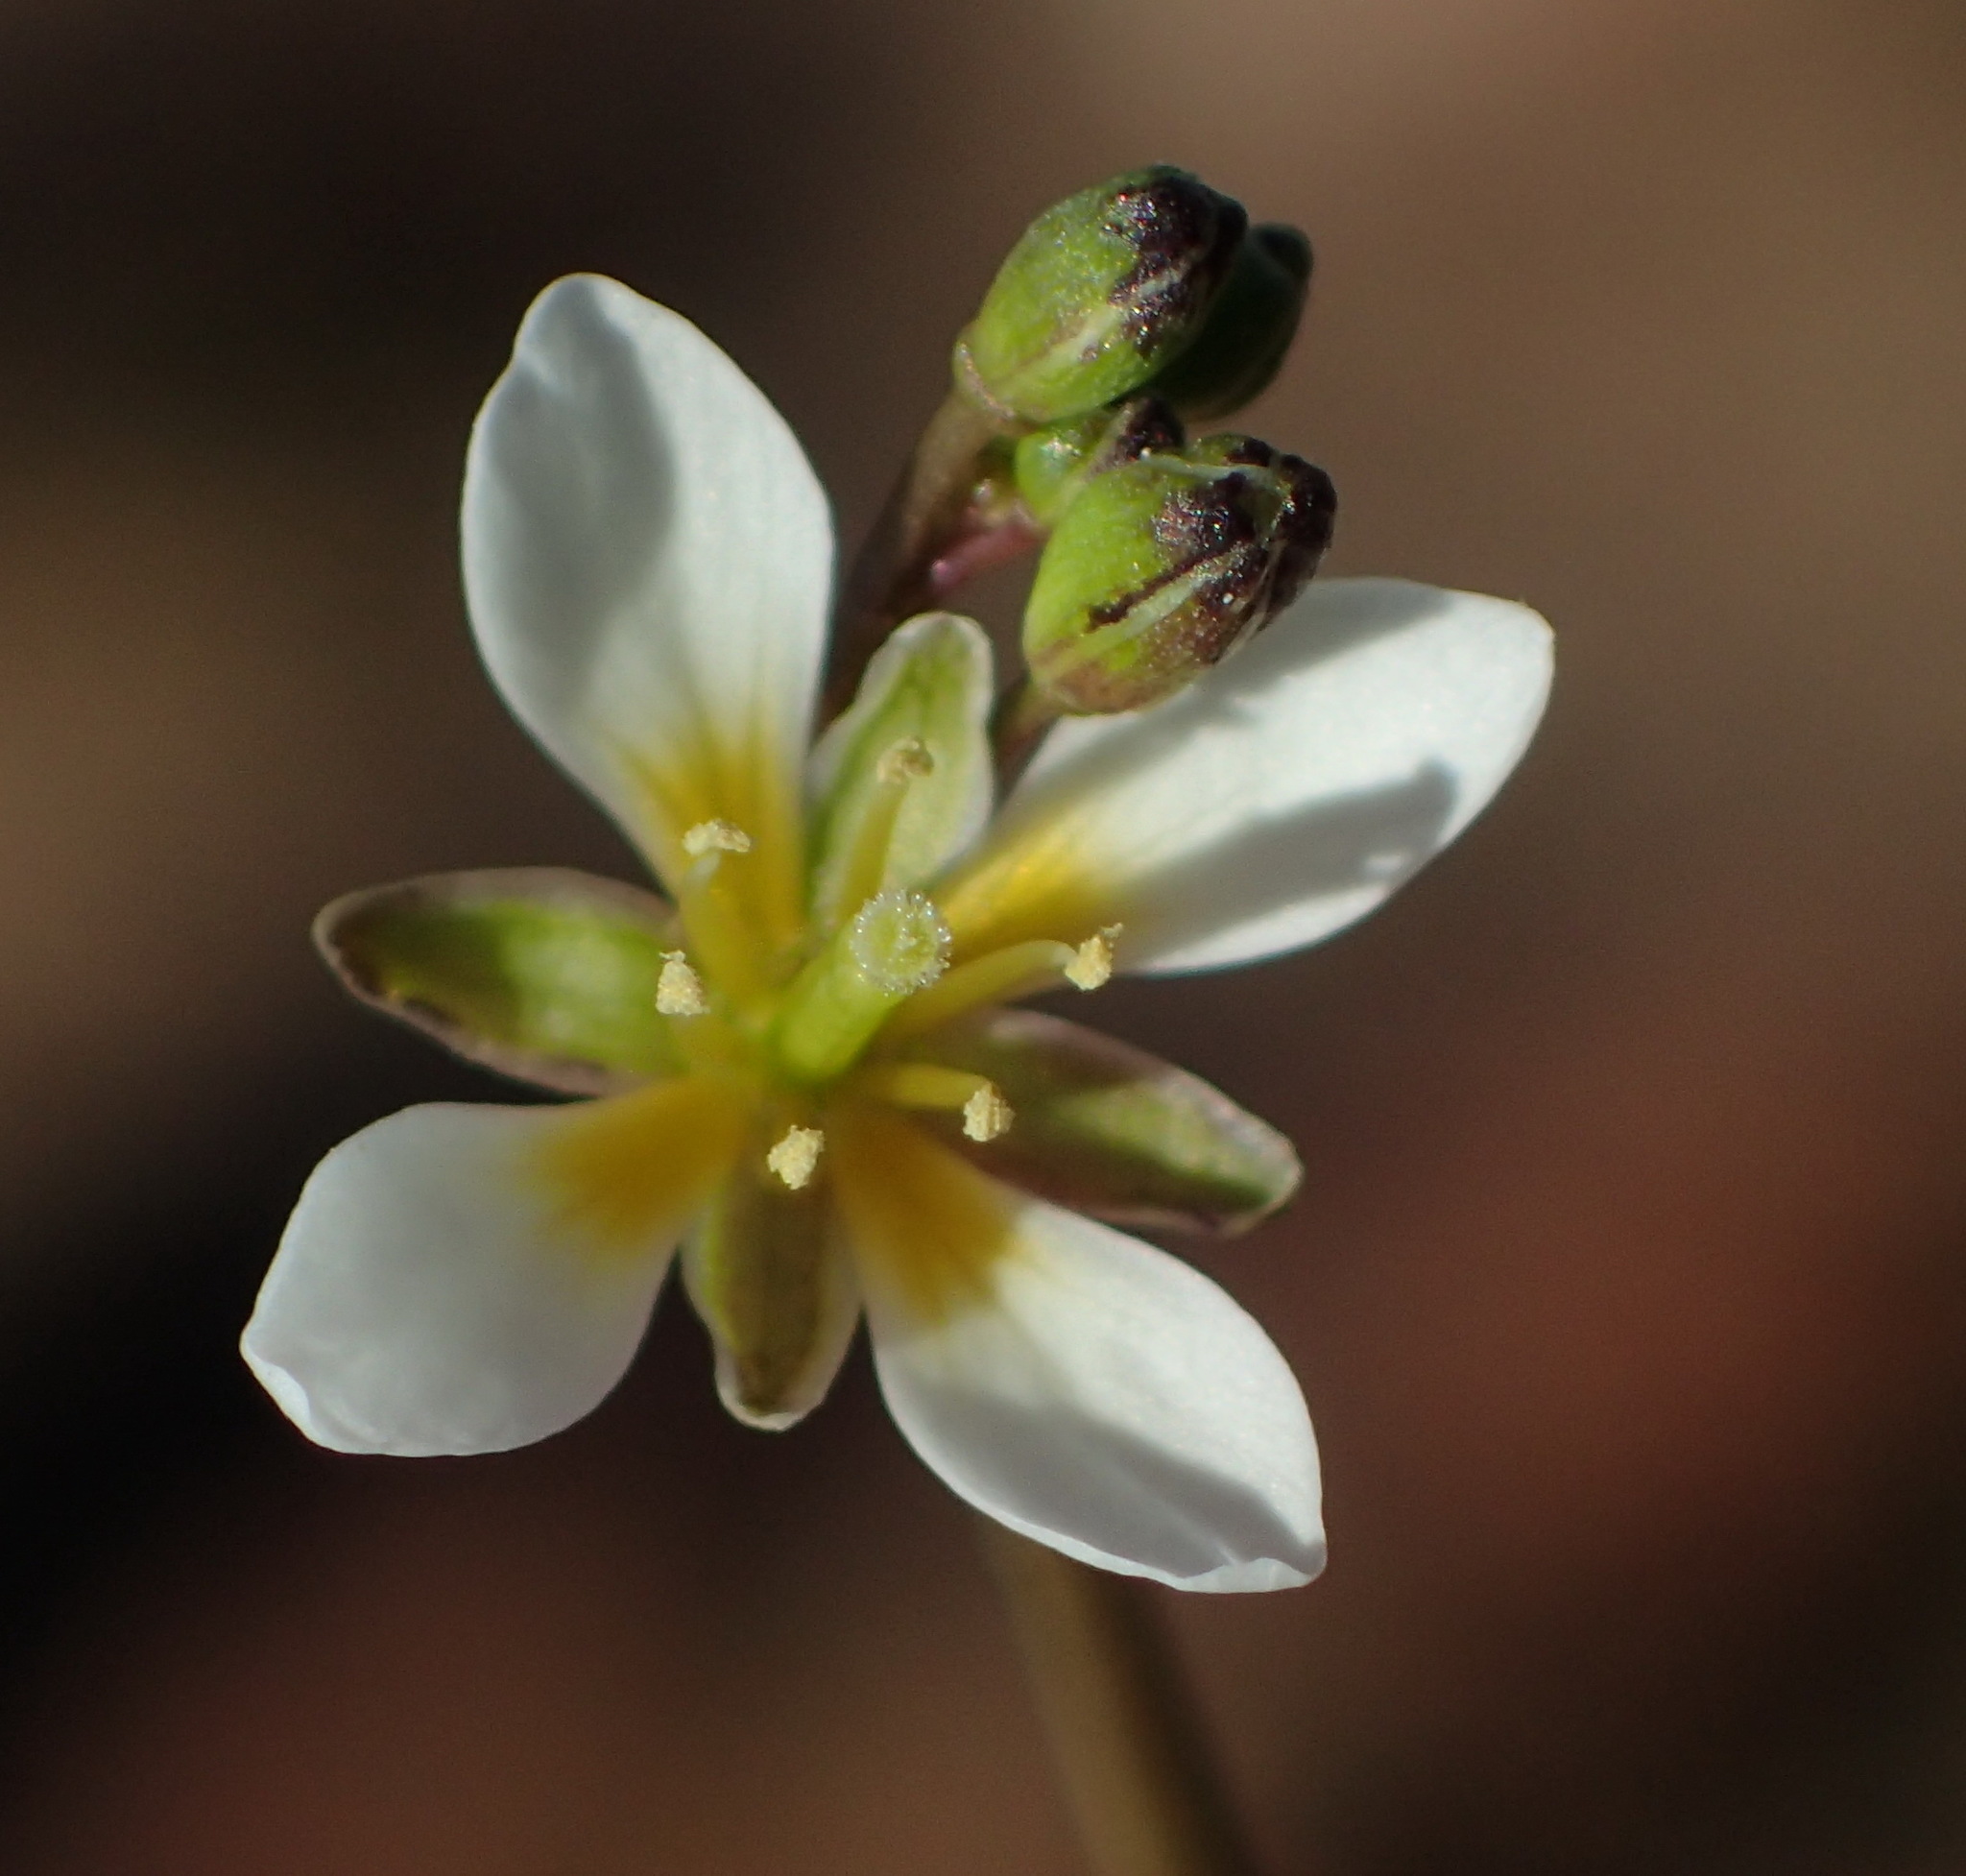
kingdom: Plantae
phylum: Tracheophyta
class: Magnoliopsida
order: Brassicales
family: Brassicaceae
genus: Heliophila
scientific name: Heliophila pendula
